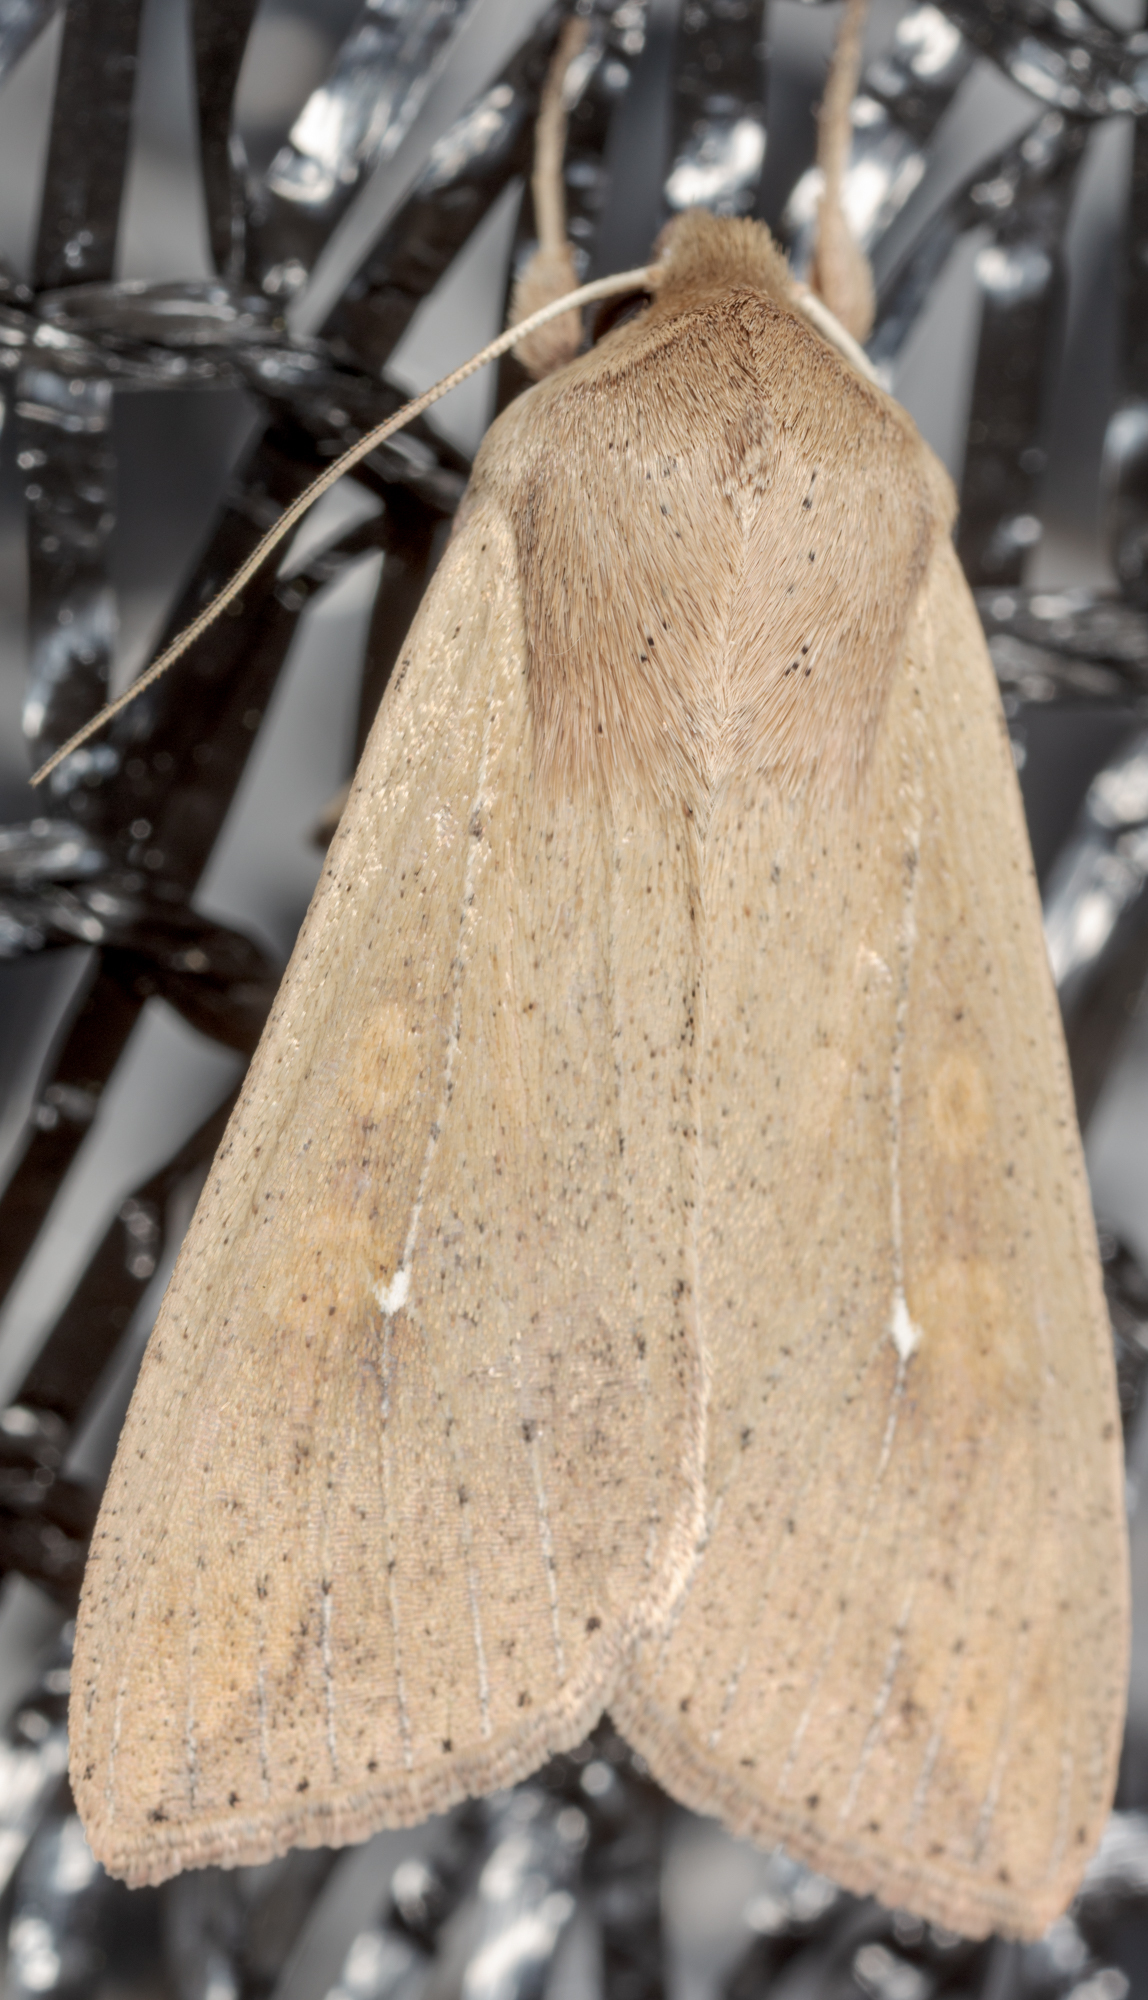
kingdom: Animalia
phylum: Arthropoda
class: Insecta
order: Lepidoptera
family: Noctuidae
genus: Mythimna
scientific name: Mythimna unipuncta
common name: White-speck
